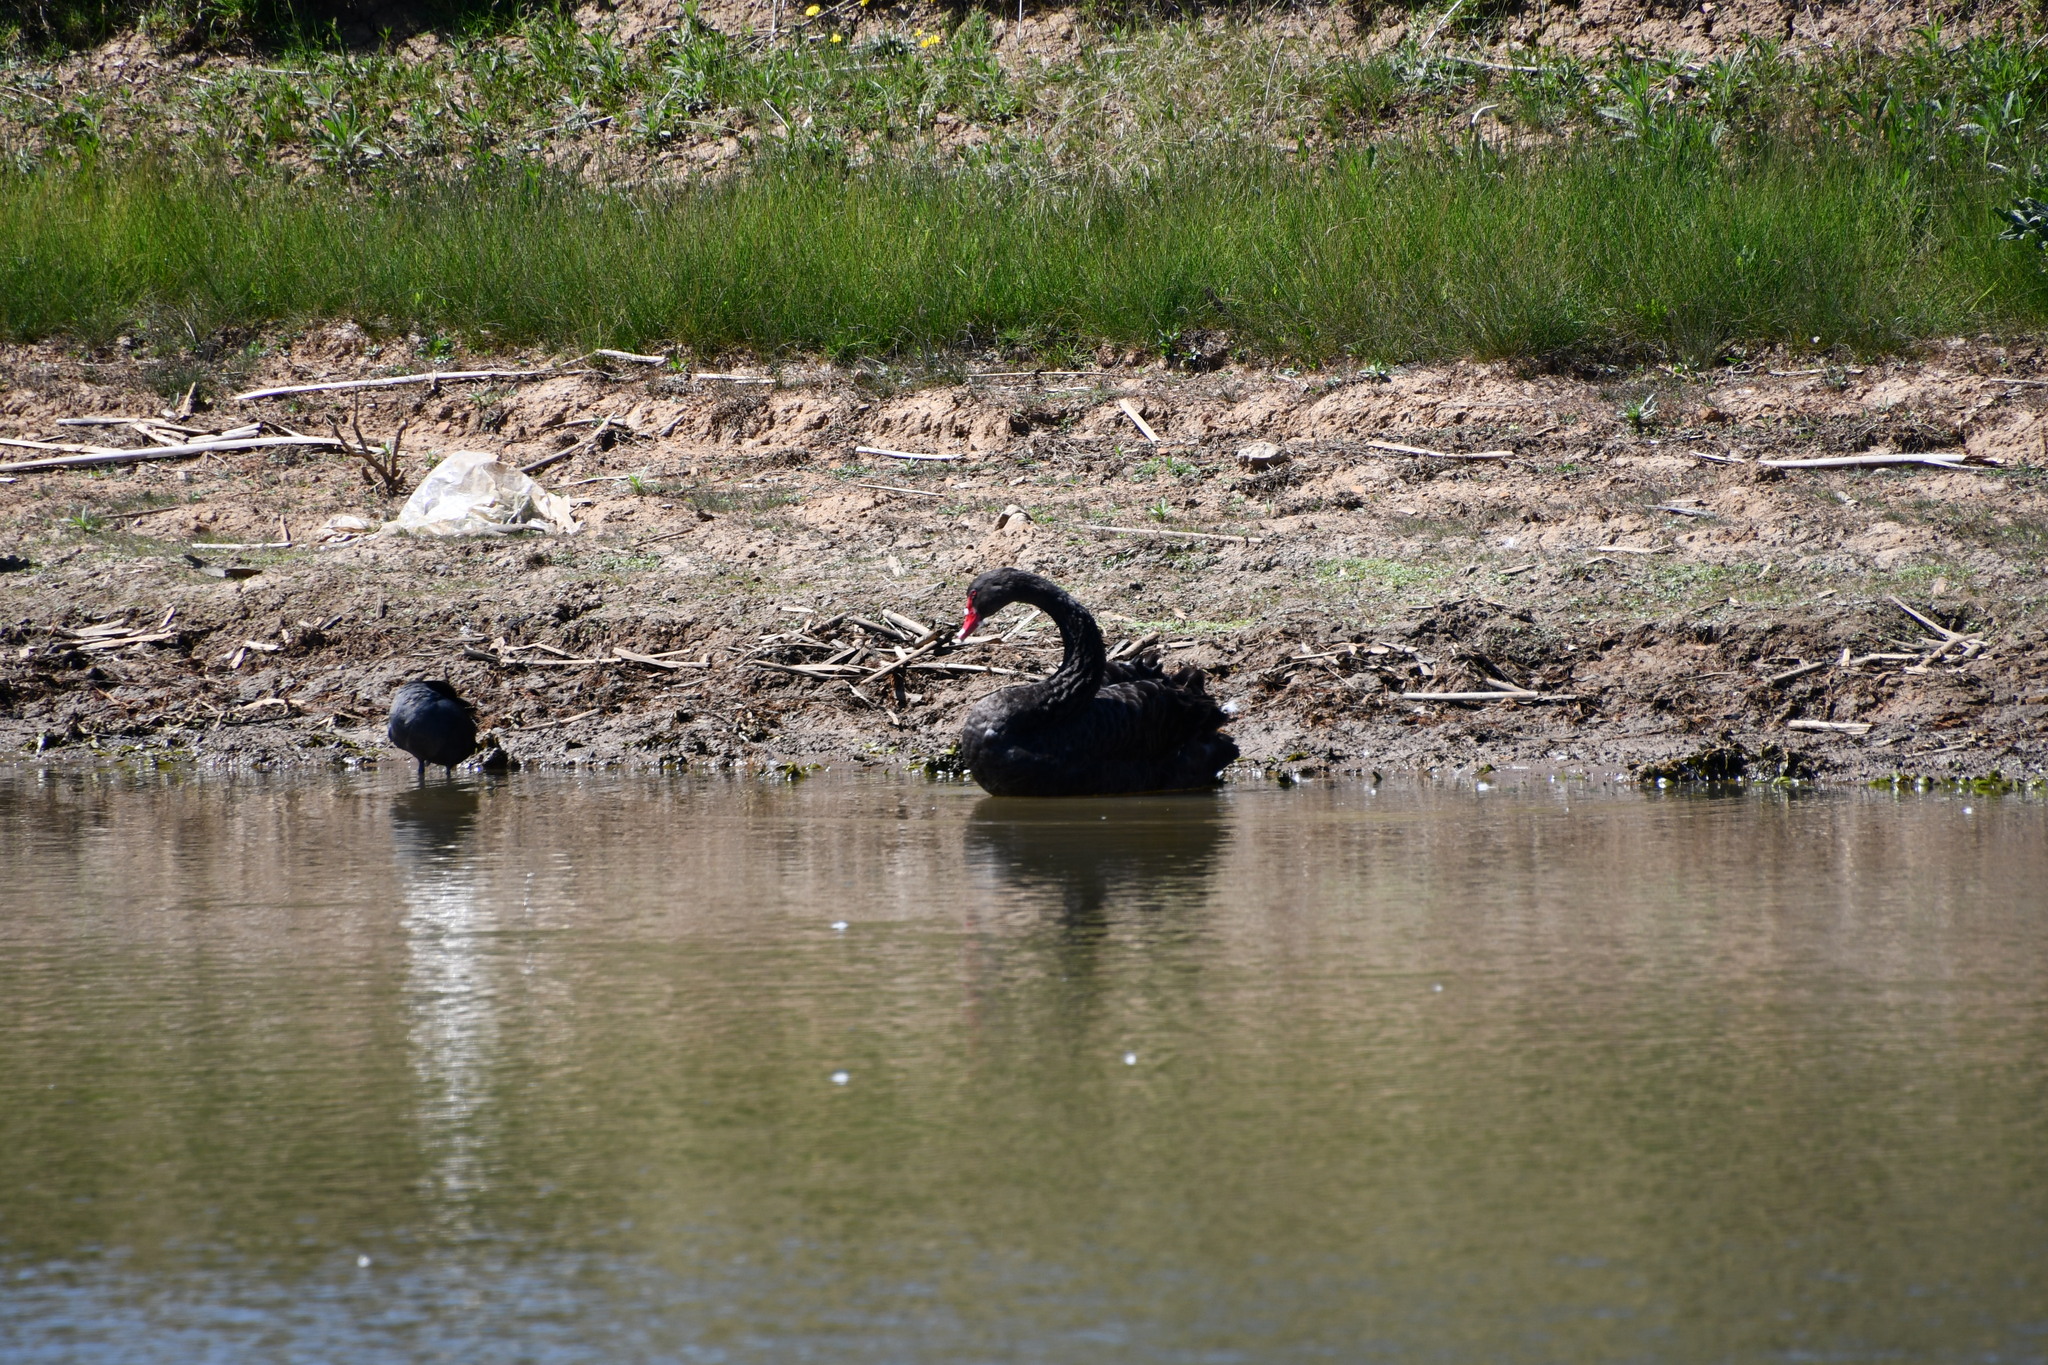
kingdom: Animalia
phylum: Chordata
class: Aves
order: Anseriformes
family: Anatidae
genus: Cygnus
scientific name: Cygnus atratus
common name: Black swan
